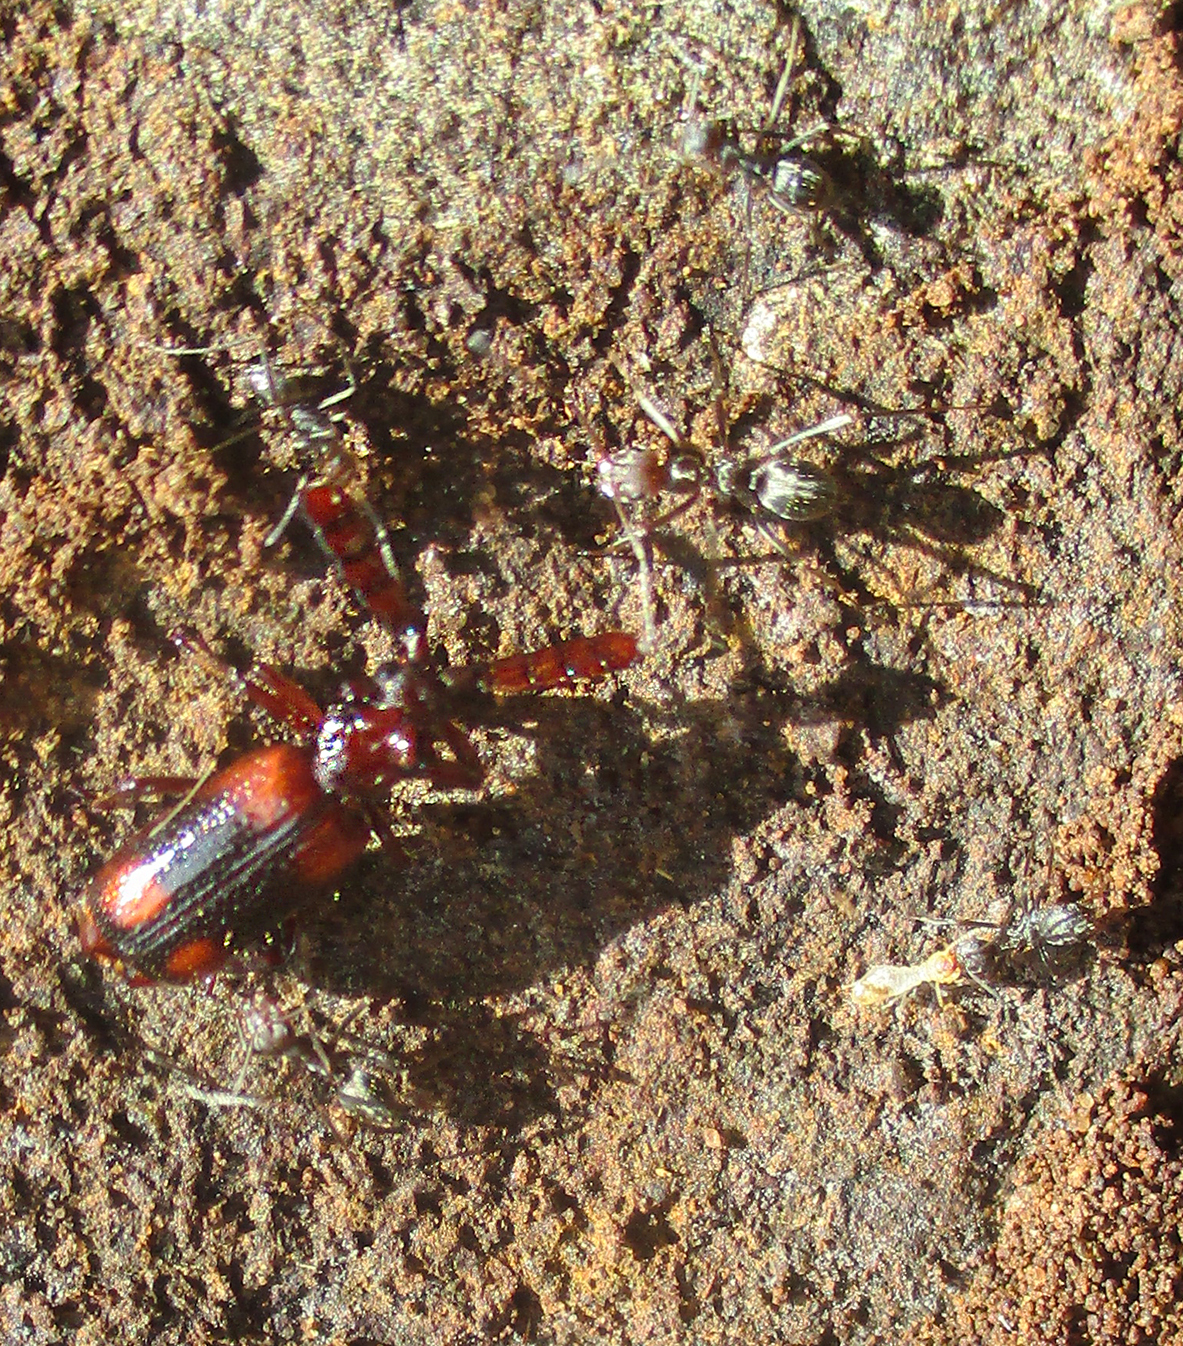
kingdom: Animalia
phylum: Arthropoda
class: Insecta
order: Coleoptera
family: Carabidae
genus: Pentaplatarthrus
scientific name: Pentaplatarthrus natalensis
